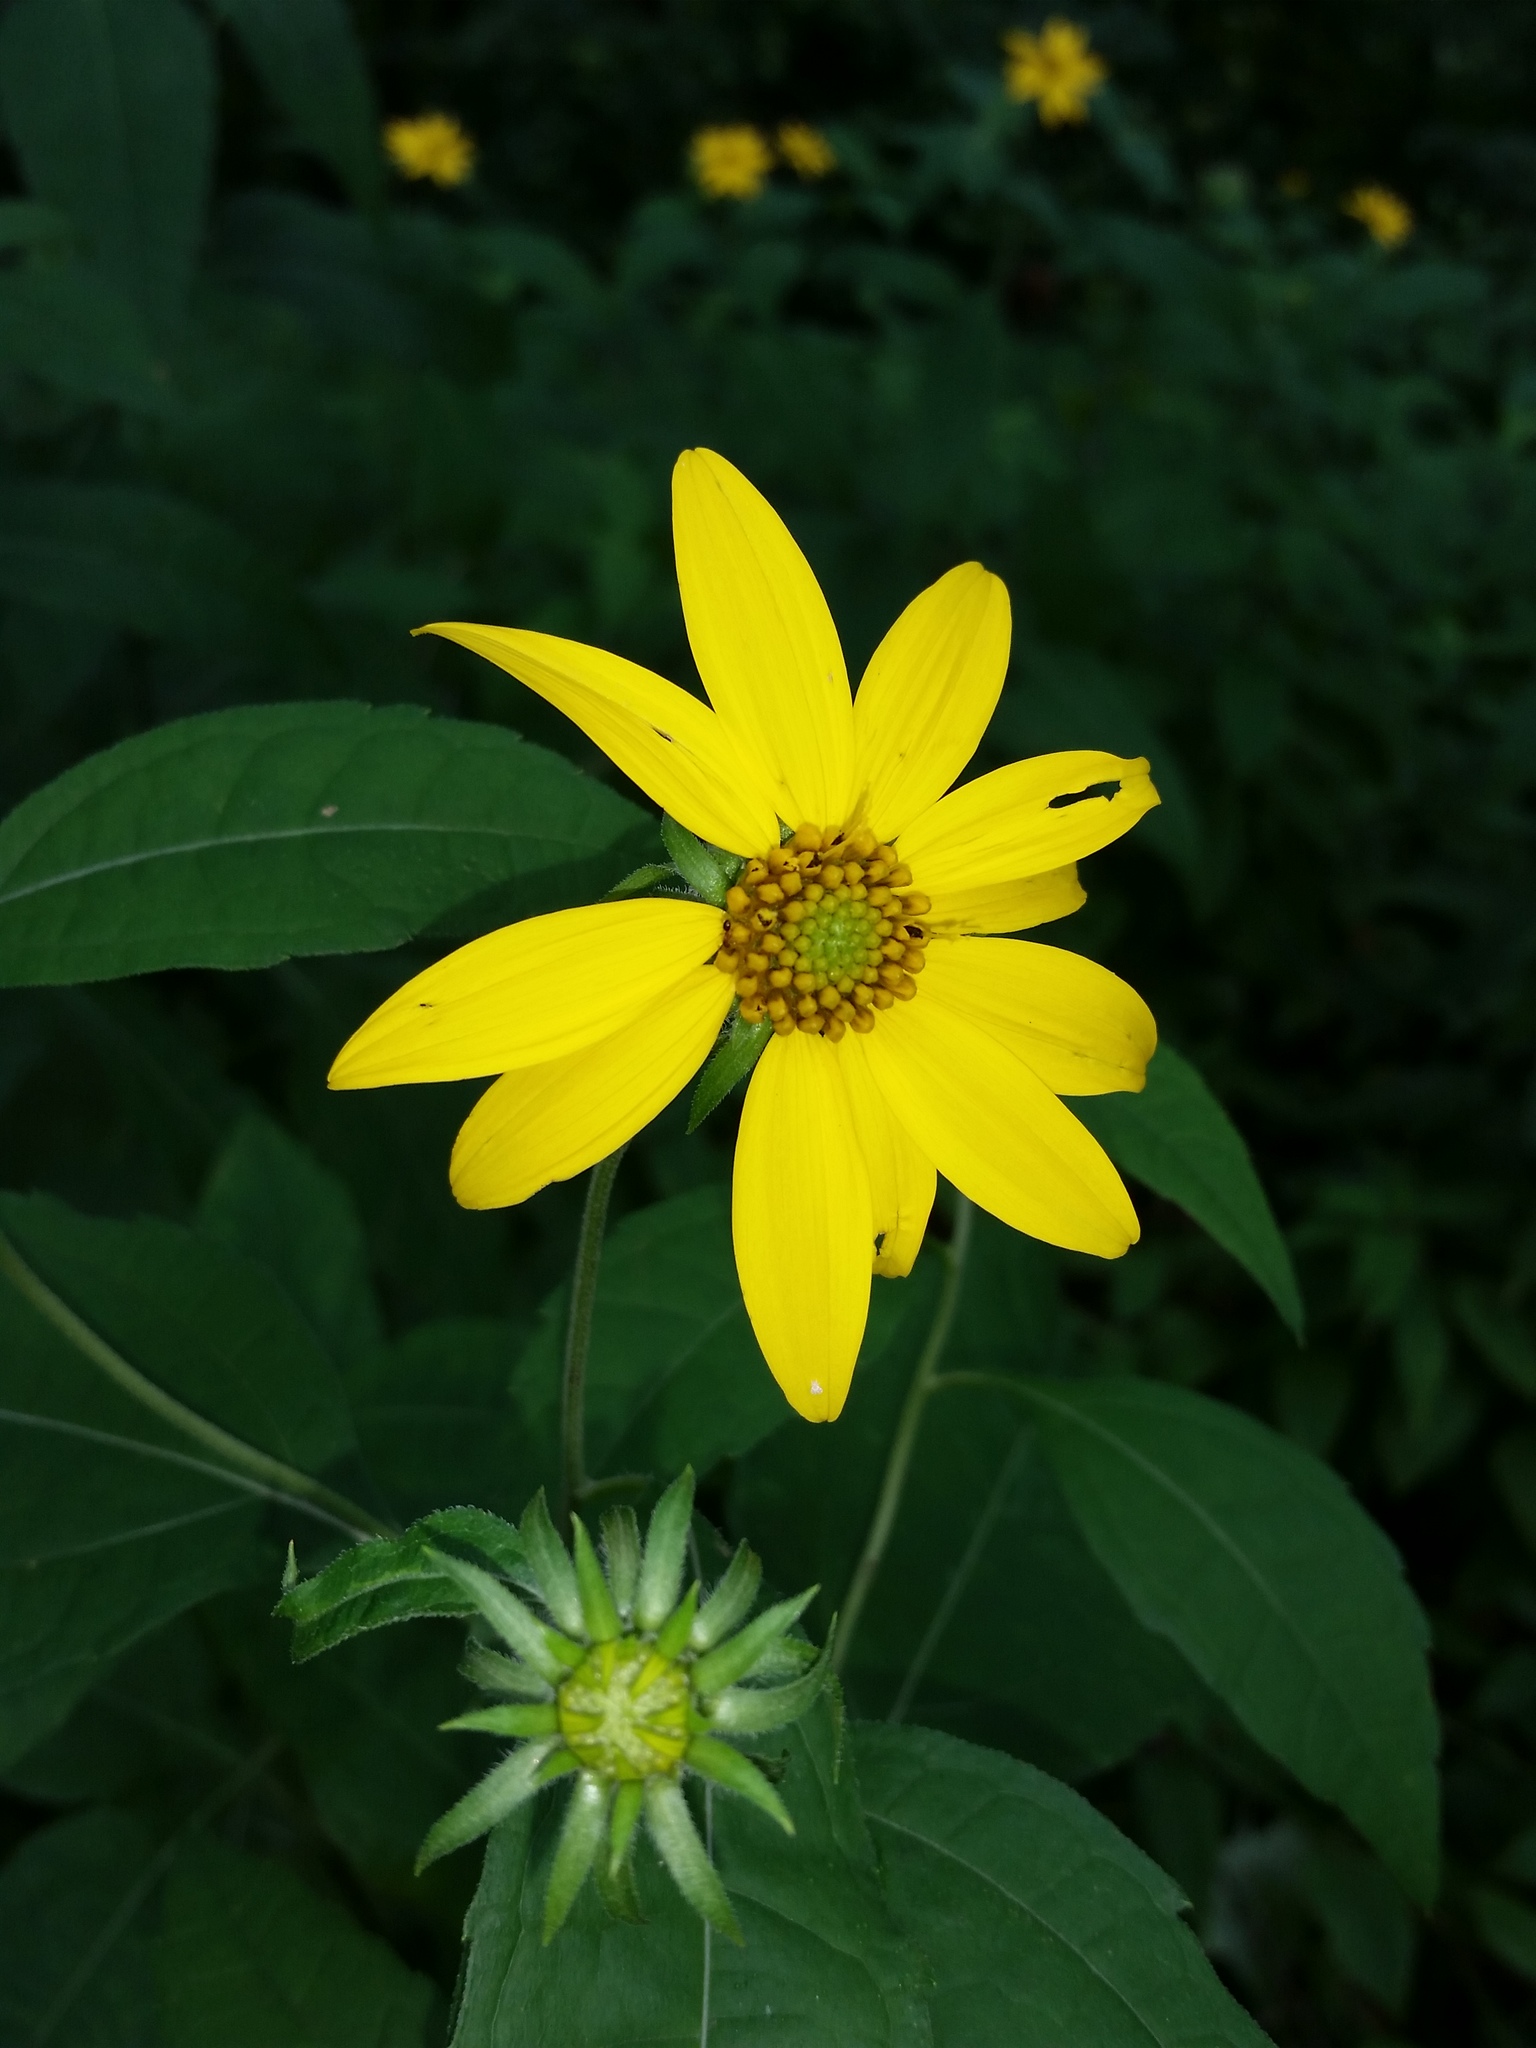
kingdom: Plantae
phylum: Tracheophyta
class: Magnoliopsida
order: Asterales
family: Asteraceae
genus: Helianthus
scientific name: Helianthus decapetalus
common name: Thin-leaved sunflower
